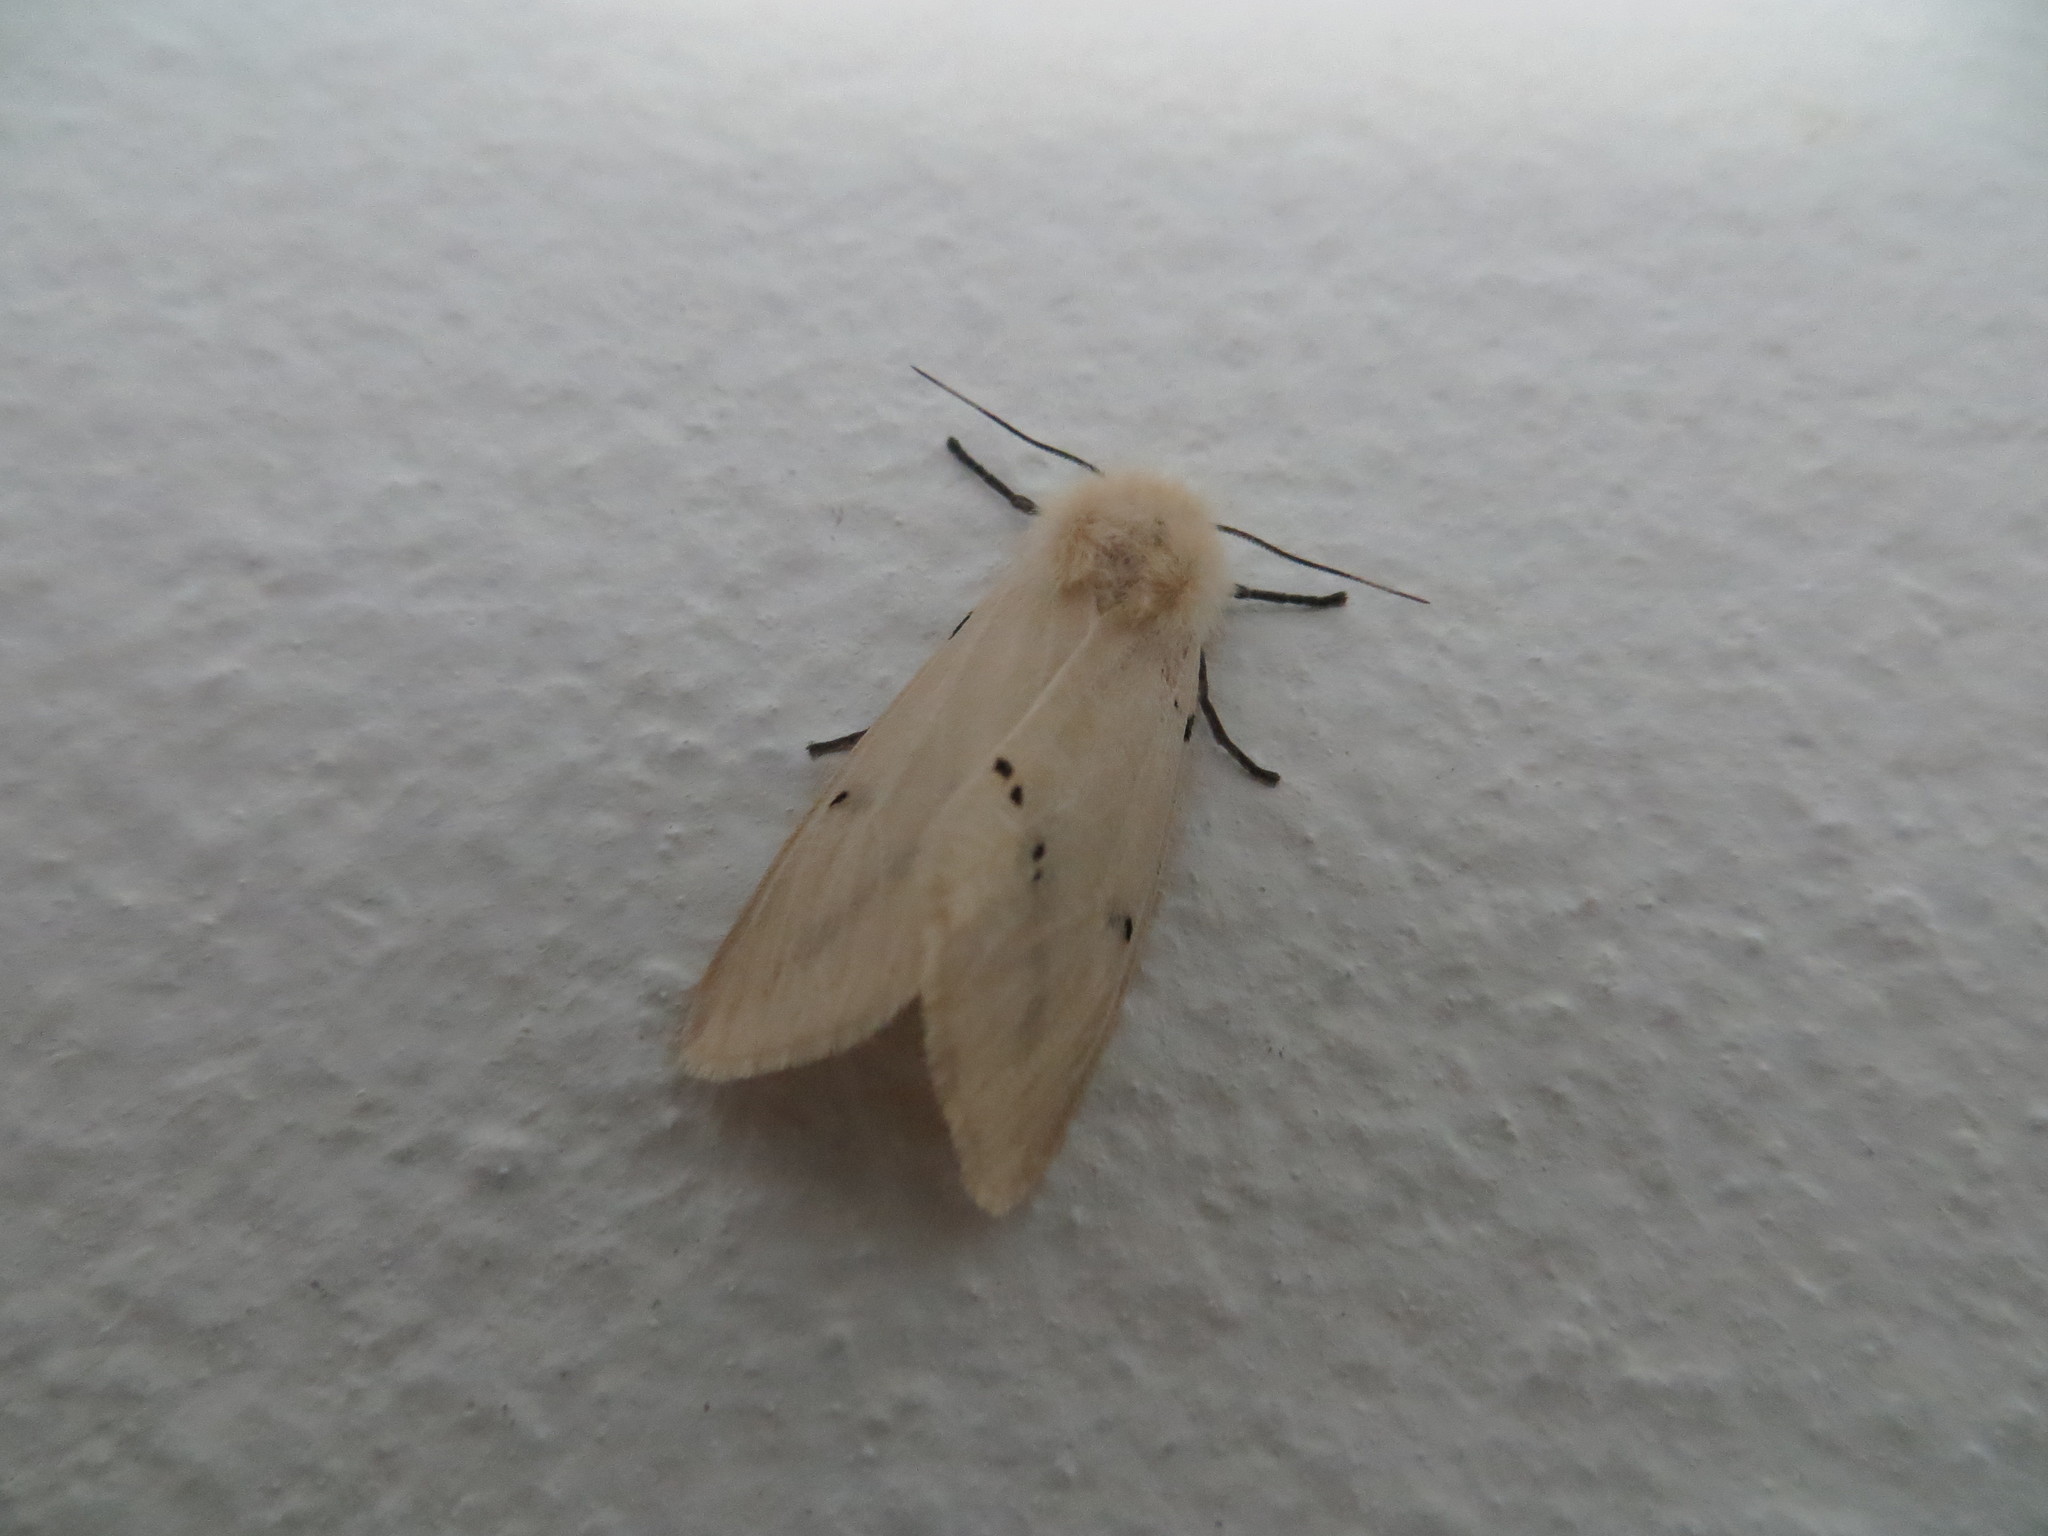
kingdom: Animalia
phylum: Arthropoda
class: Insecta
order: Lepidoptera
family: Erebidae
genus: Spilarctia
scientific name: Spilarctia lutea
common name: Buff ermine
